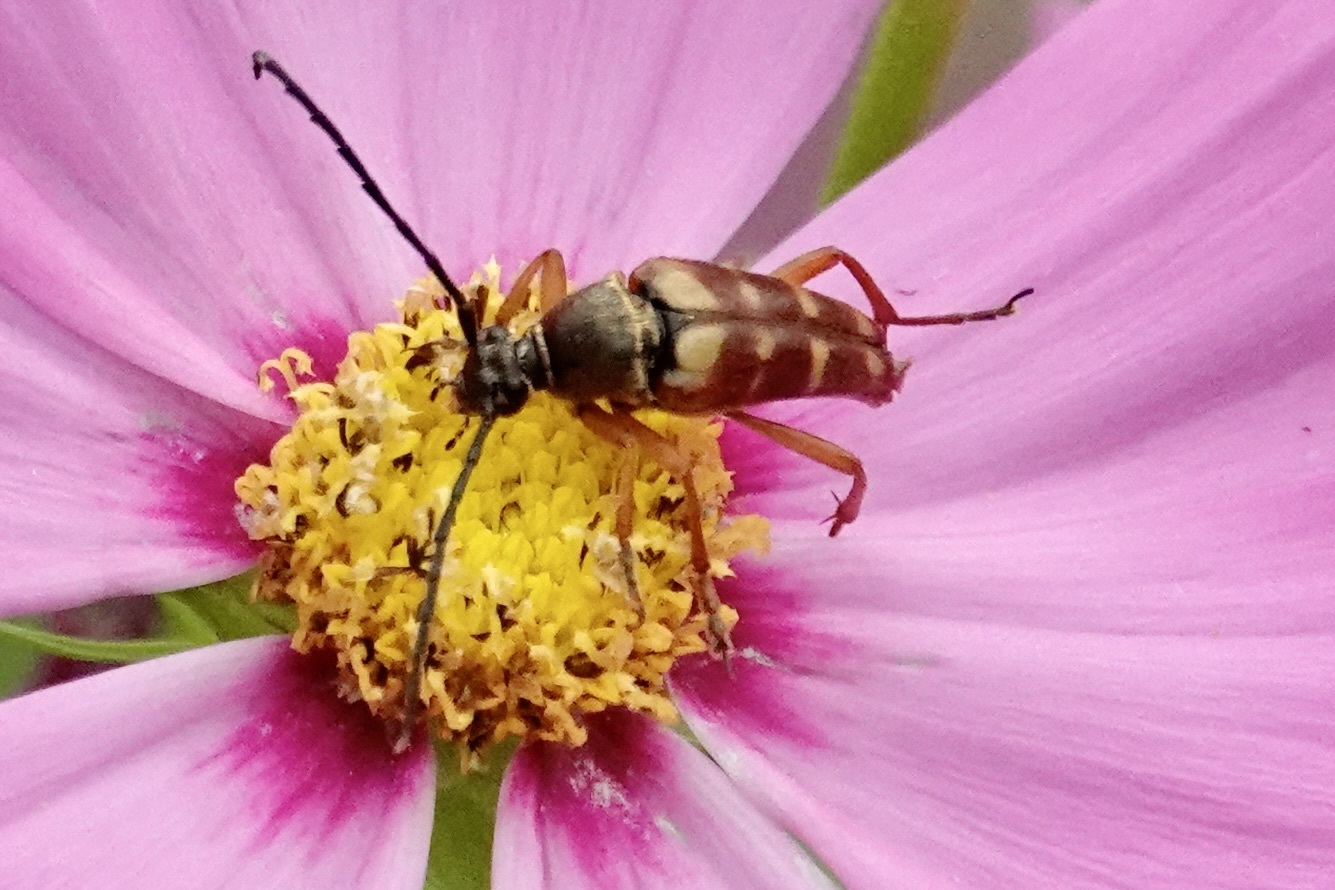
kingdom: Animalia
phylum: Arthropoda
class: Insecta
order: Coleoptera
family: Cerambycidae
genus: Typocerus
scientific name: Typocerus velutinus
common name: Banded longhorn beetle
